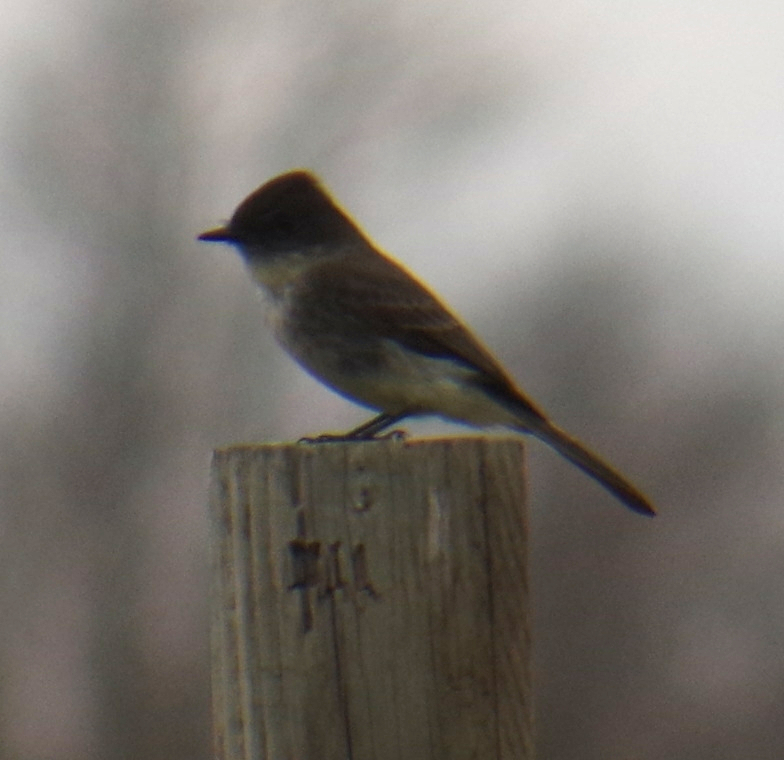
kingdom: Animalia
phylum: Chordata
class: Aves
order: Passeriformes
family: Tyrannidae
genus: Sayornis
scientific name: Sayornis phoebe
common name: Eastern phoebe
